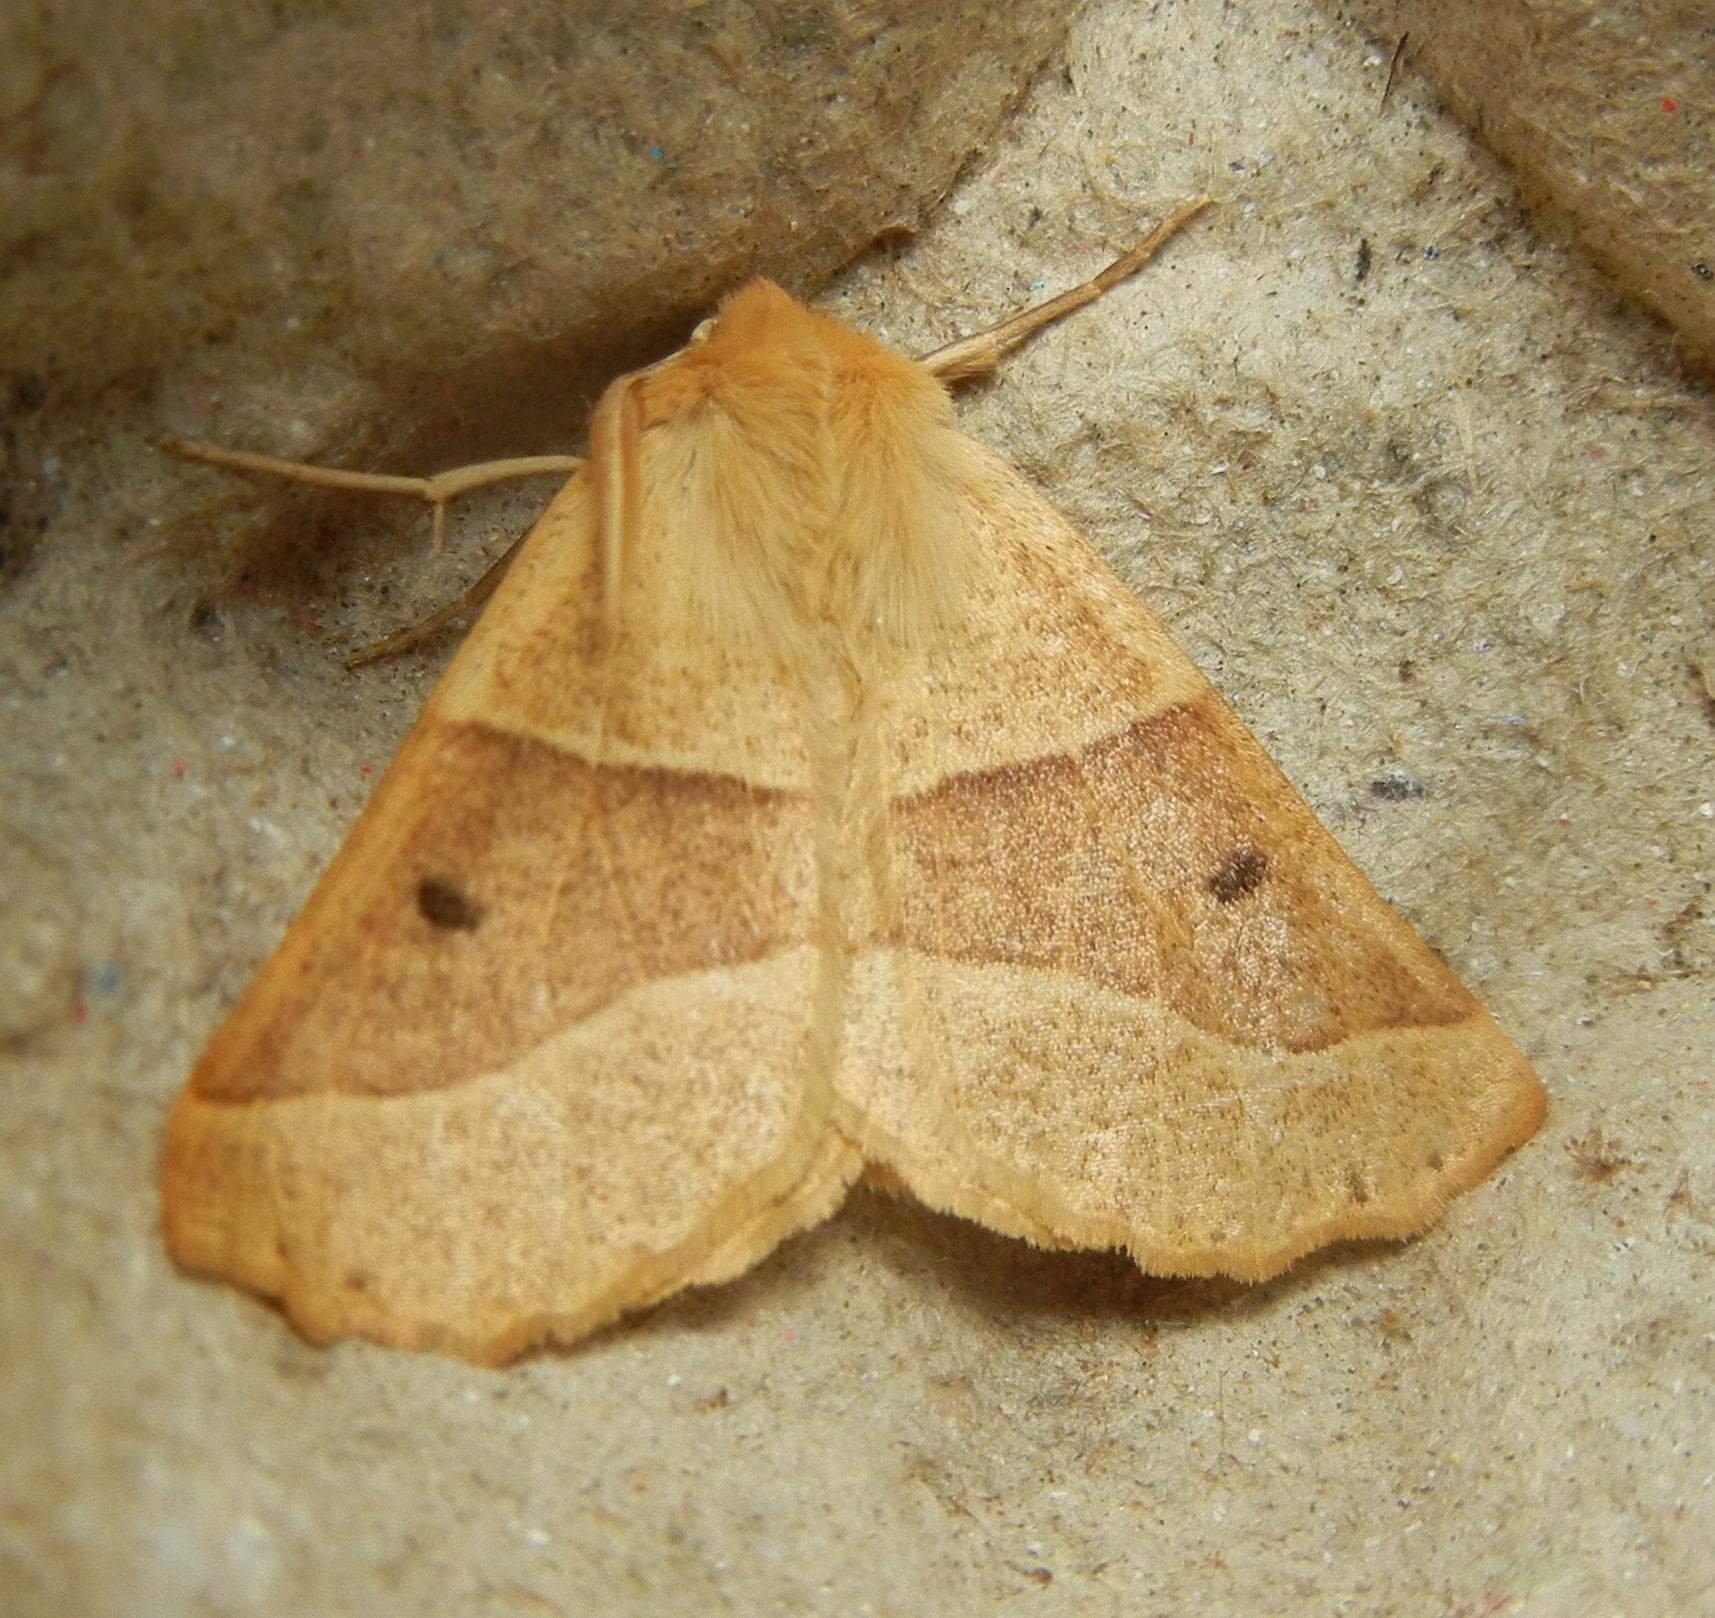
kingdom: Animalia
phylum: Arthropoda
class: Insecta
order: Lepidoptera
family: Geometridae
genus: Crocallis
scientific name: Crocallis elinguaria
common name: Scalloped oak
